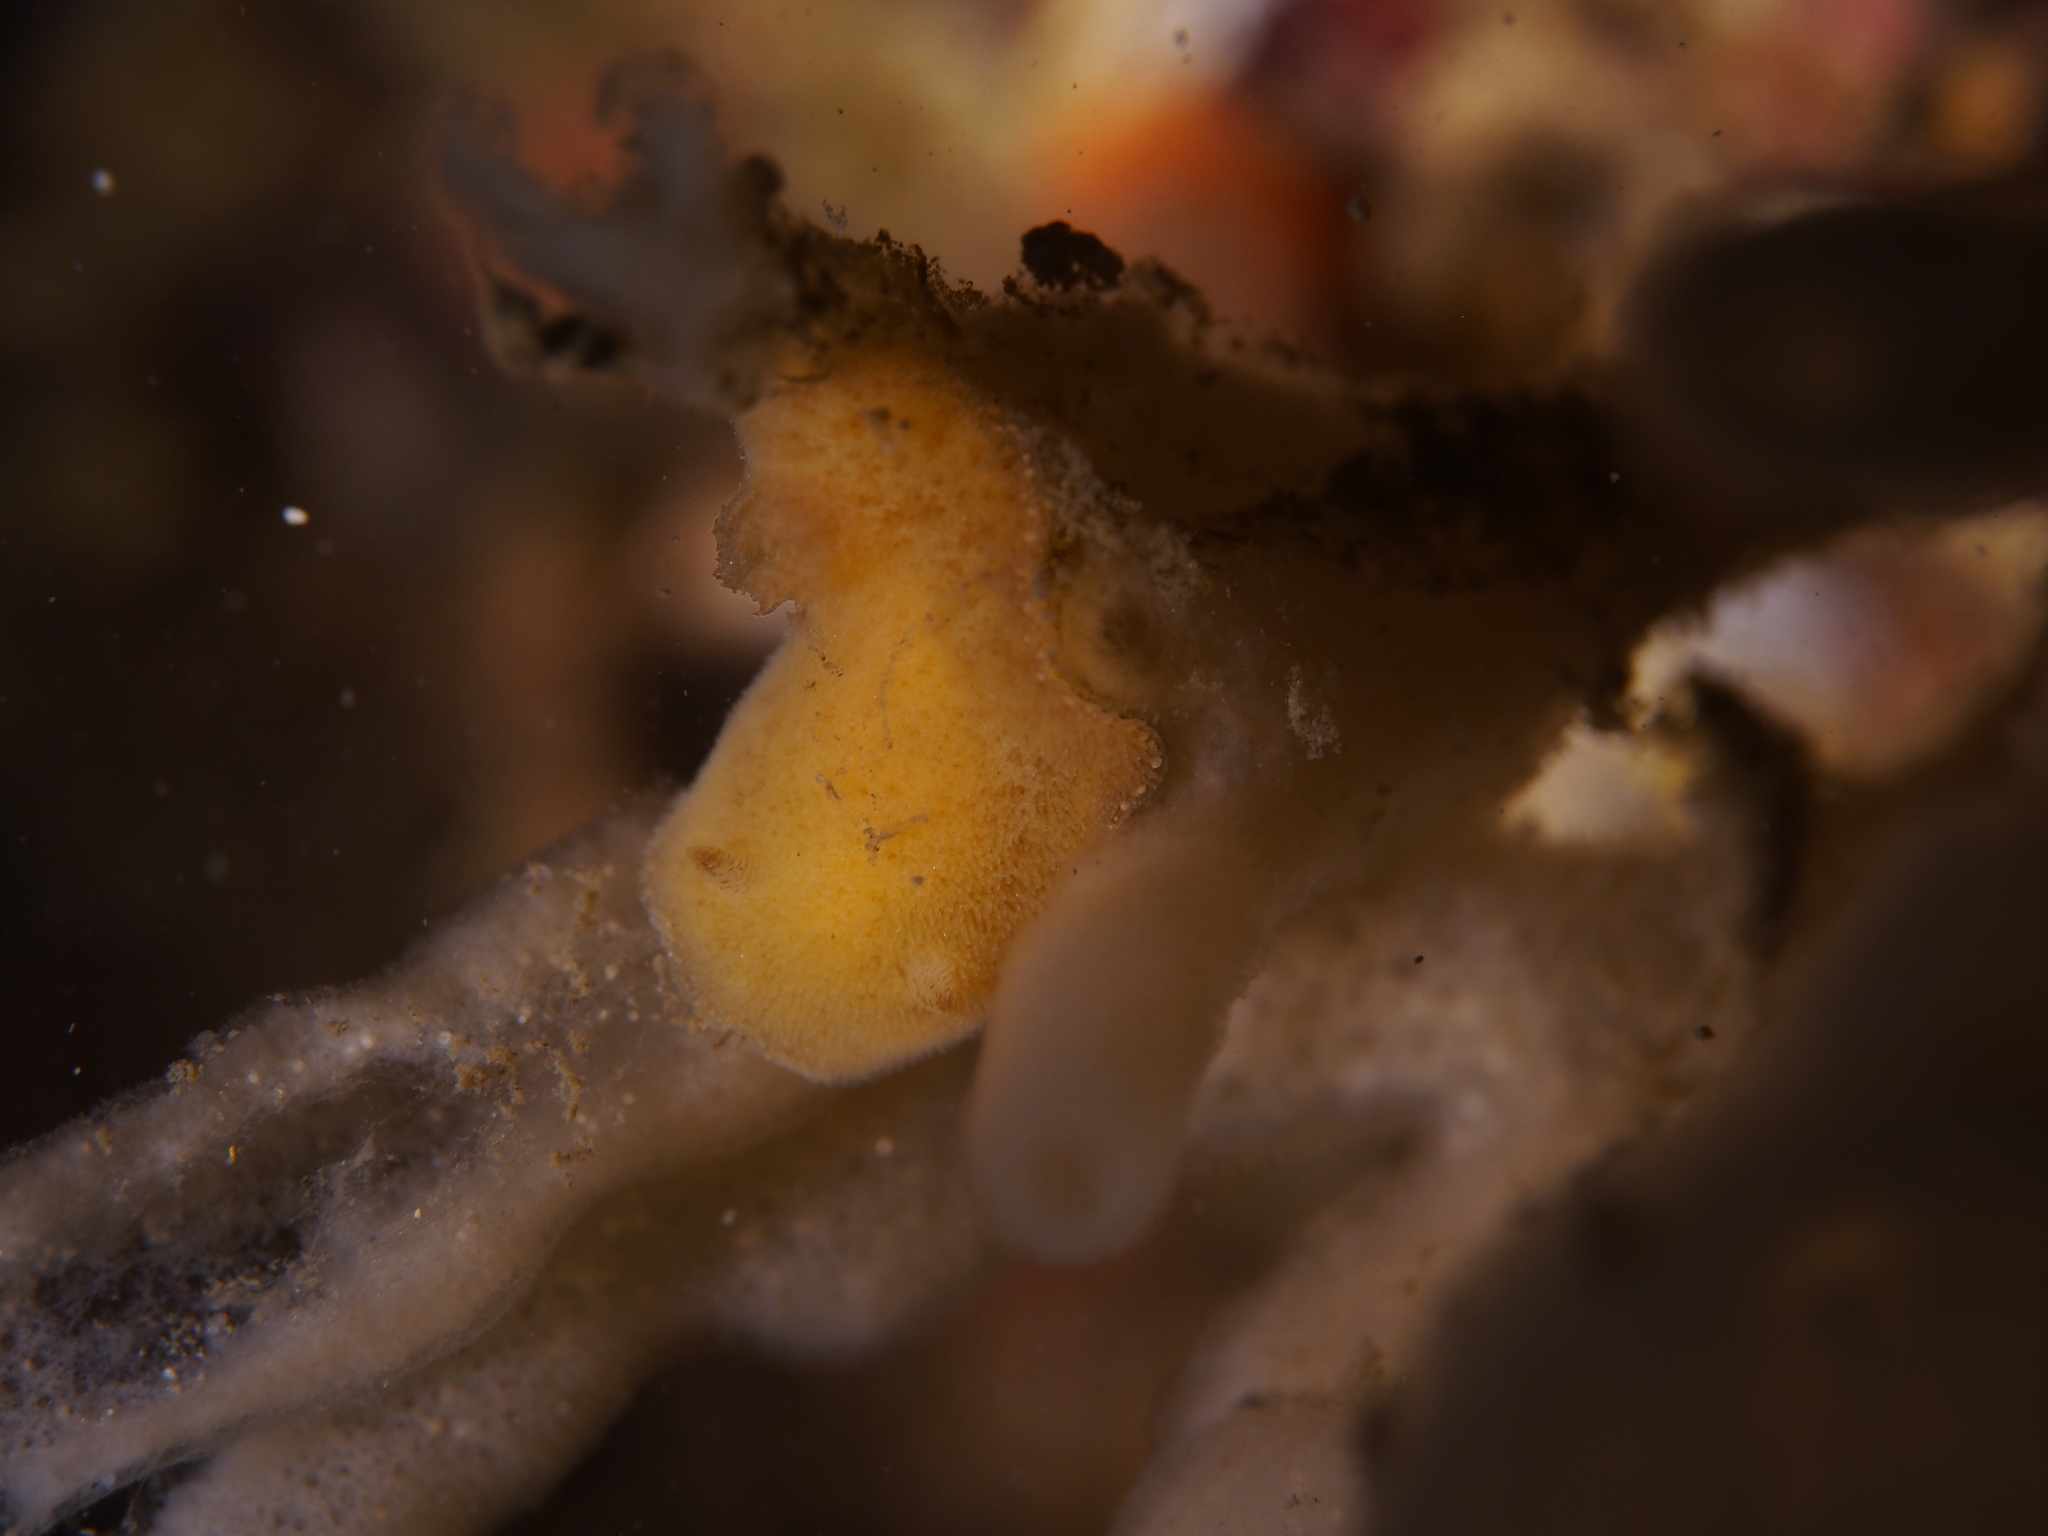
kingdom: Animalia
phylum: Mollusca
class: Gastropoda
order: Nudibranchia
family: Discodorididae
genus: Jorunna
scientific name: Jorunna tomentosa
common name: Grey sea slug
